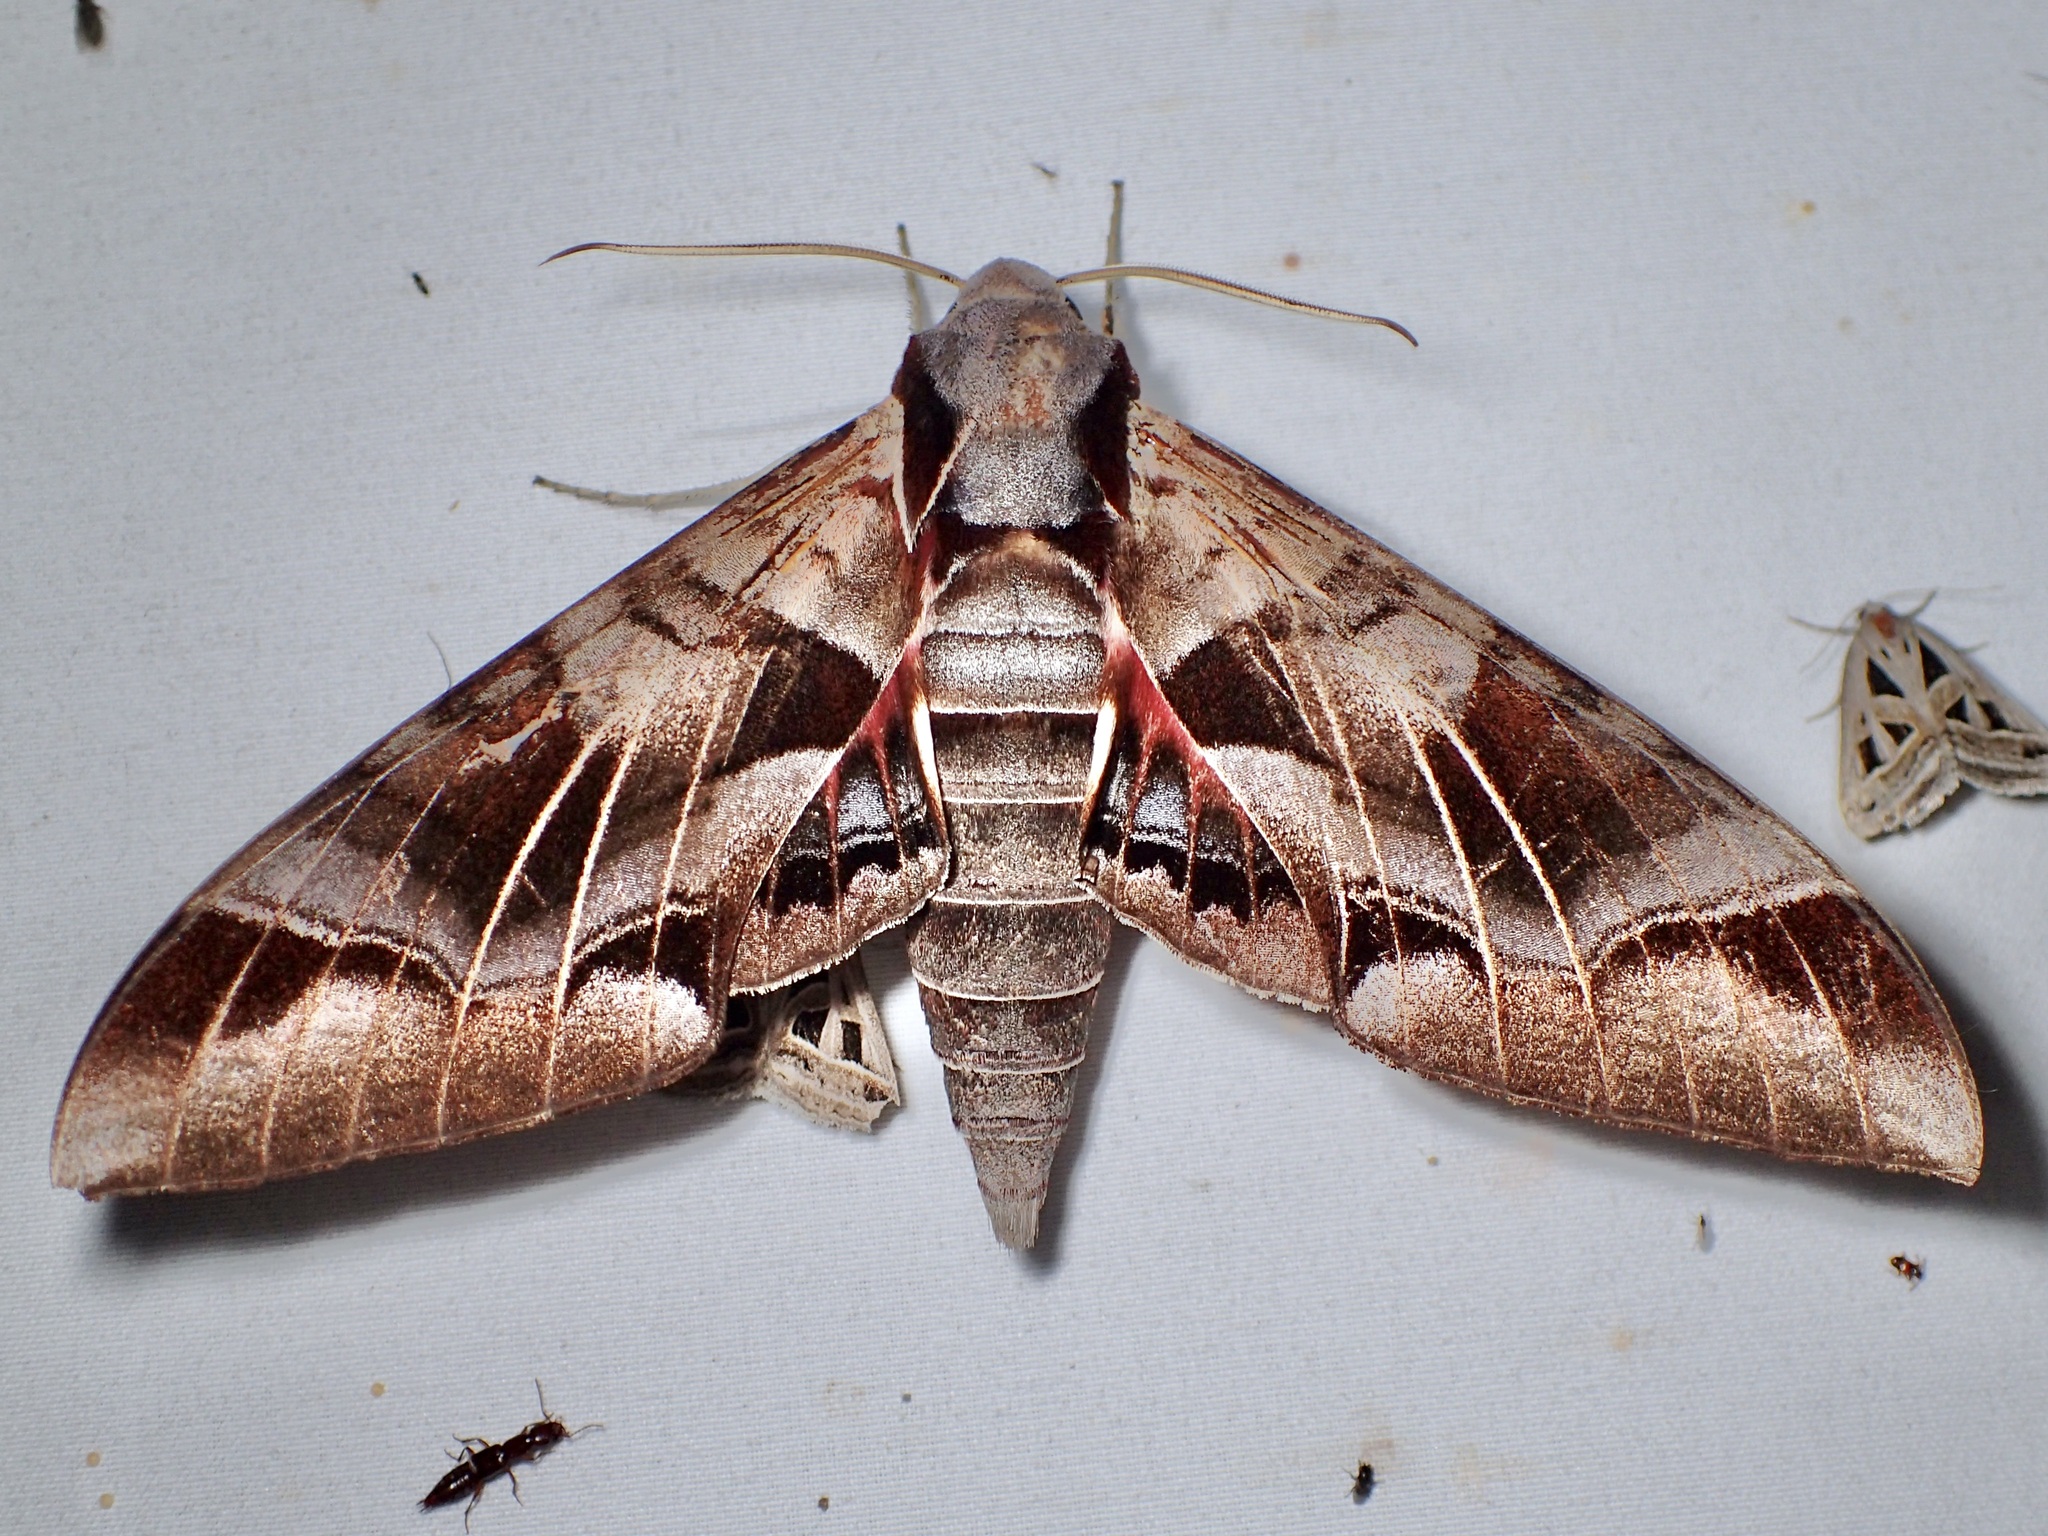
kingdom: Animalia
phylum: Arthropoda
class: Insecta
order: Lepidoptera
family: Sphingidae
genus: Eumorpha
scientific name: Eumorpha typhon
